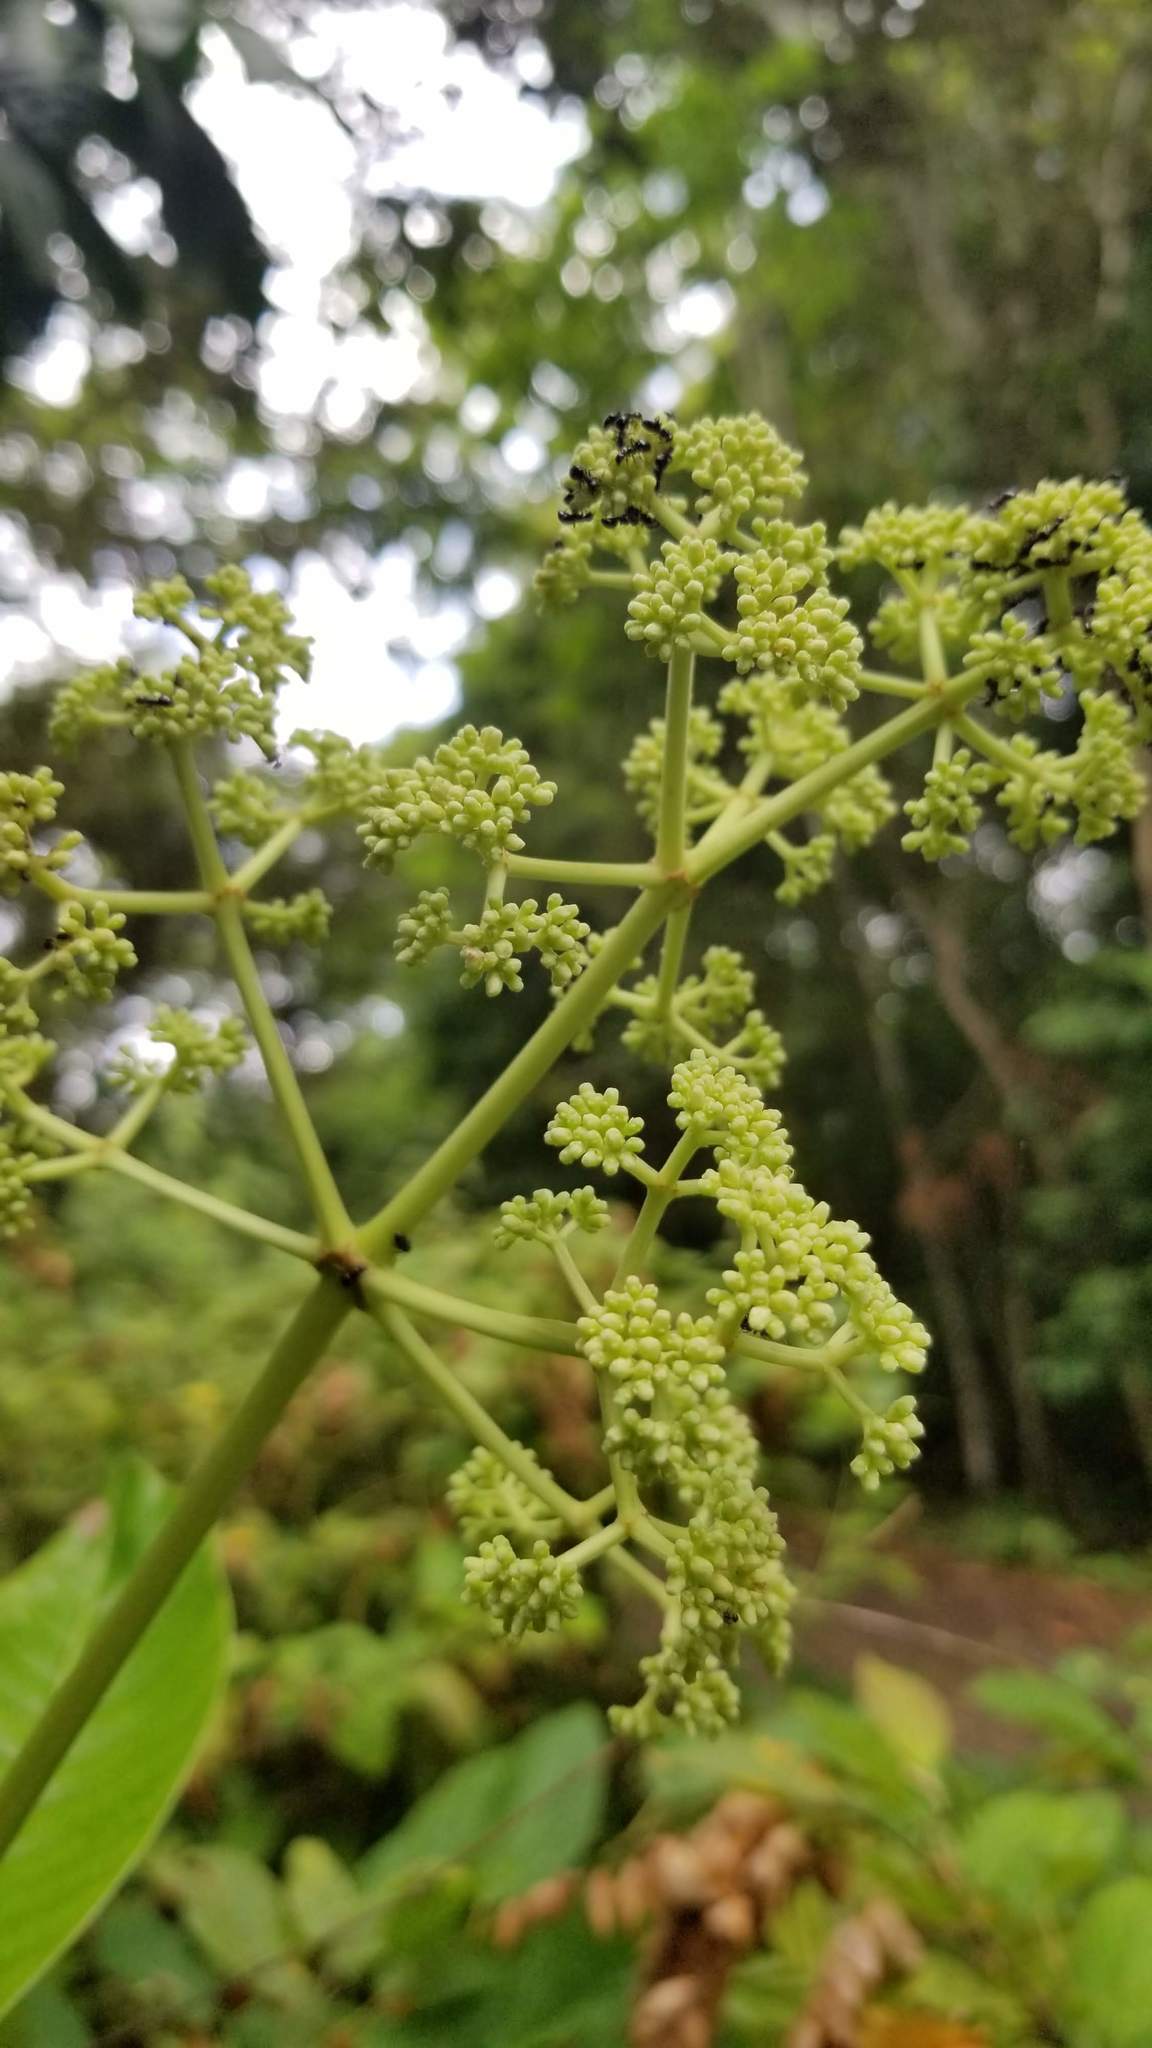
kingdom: Plantae
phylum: Tracheophyta
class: Magnoliopsida
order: Gentianales
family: Rubiaceae
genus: Psychotria
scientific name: Psychotria grandis
